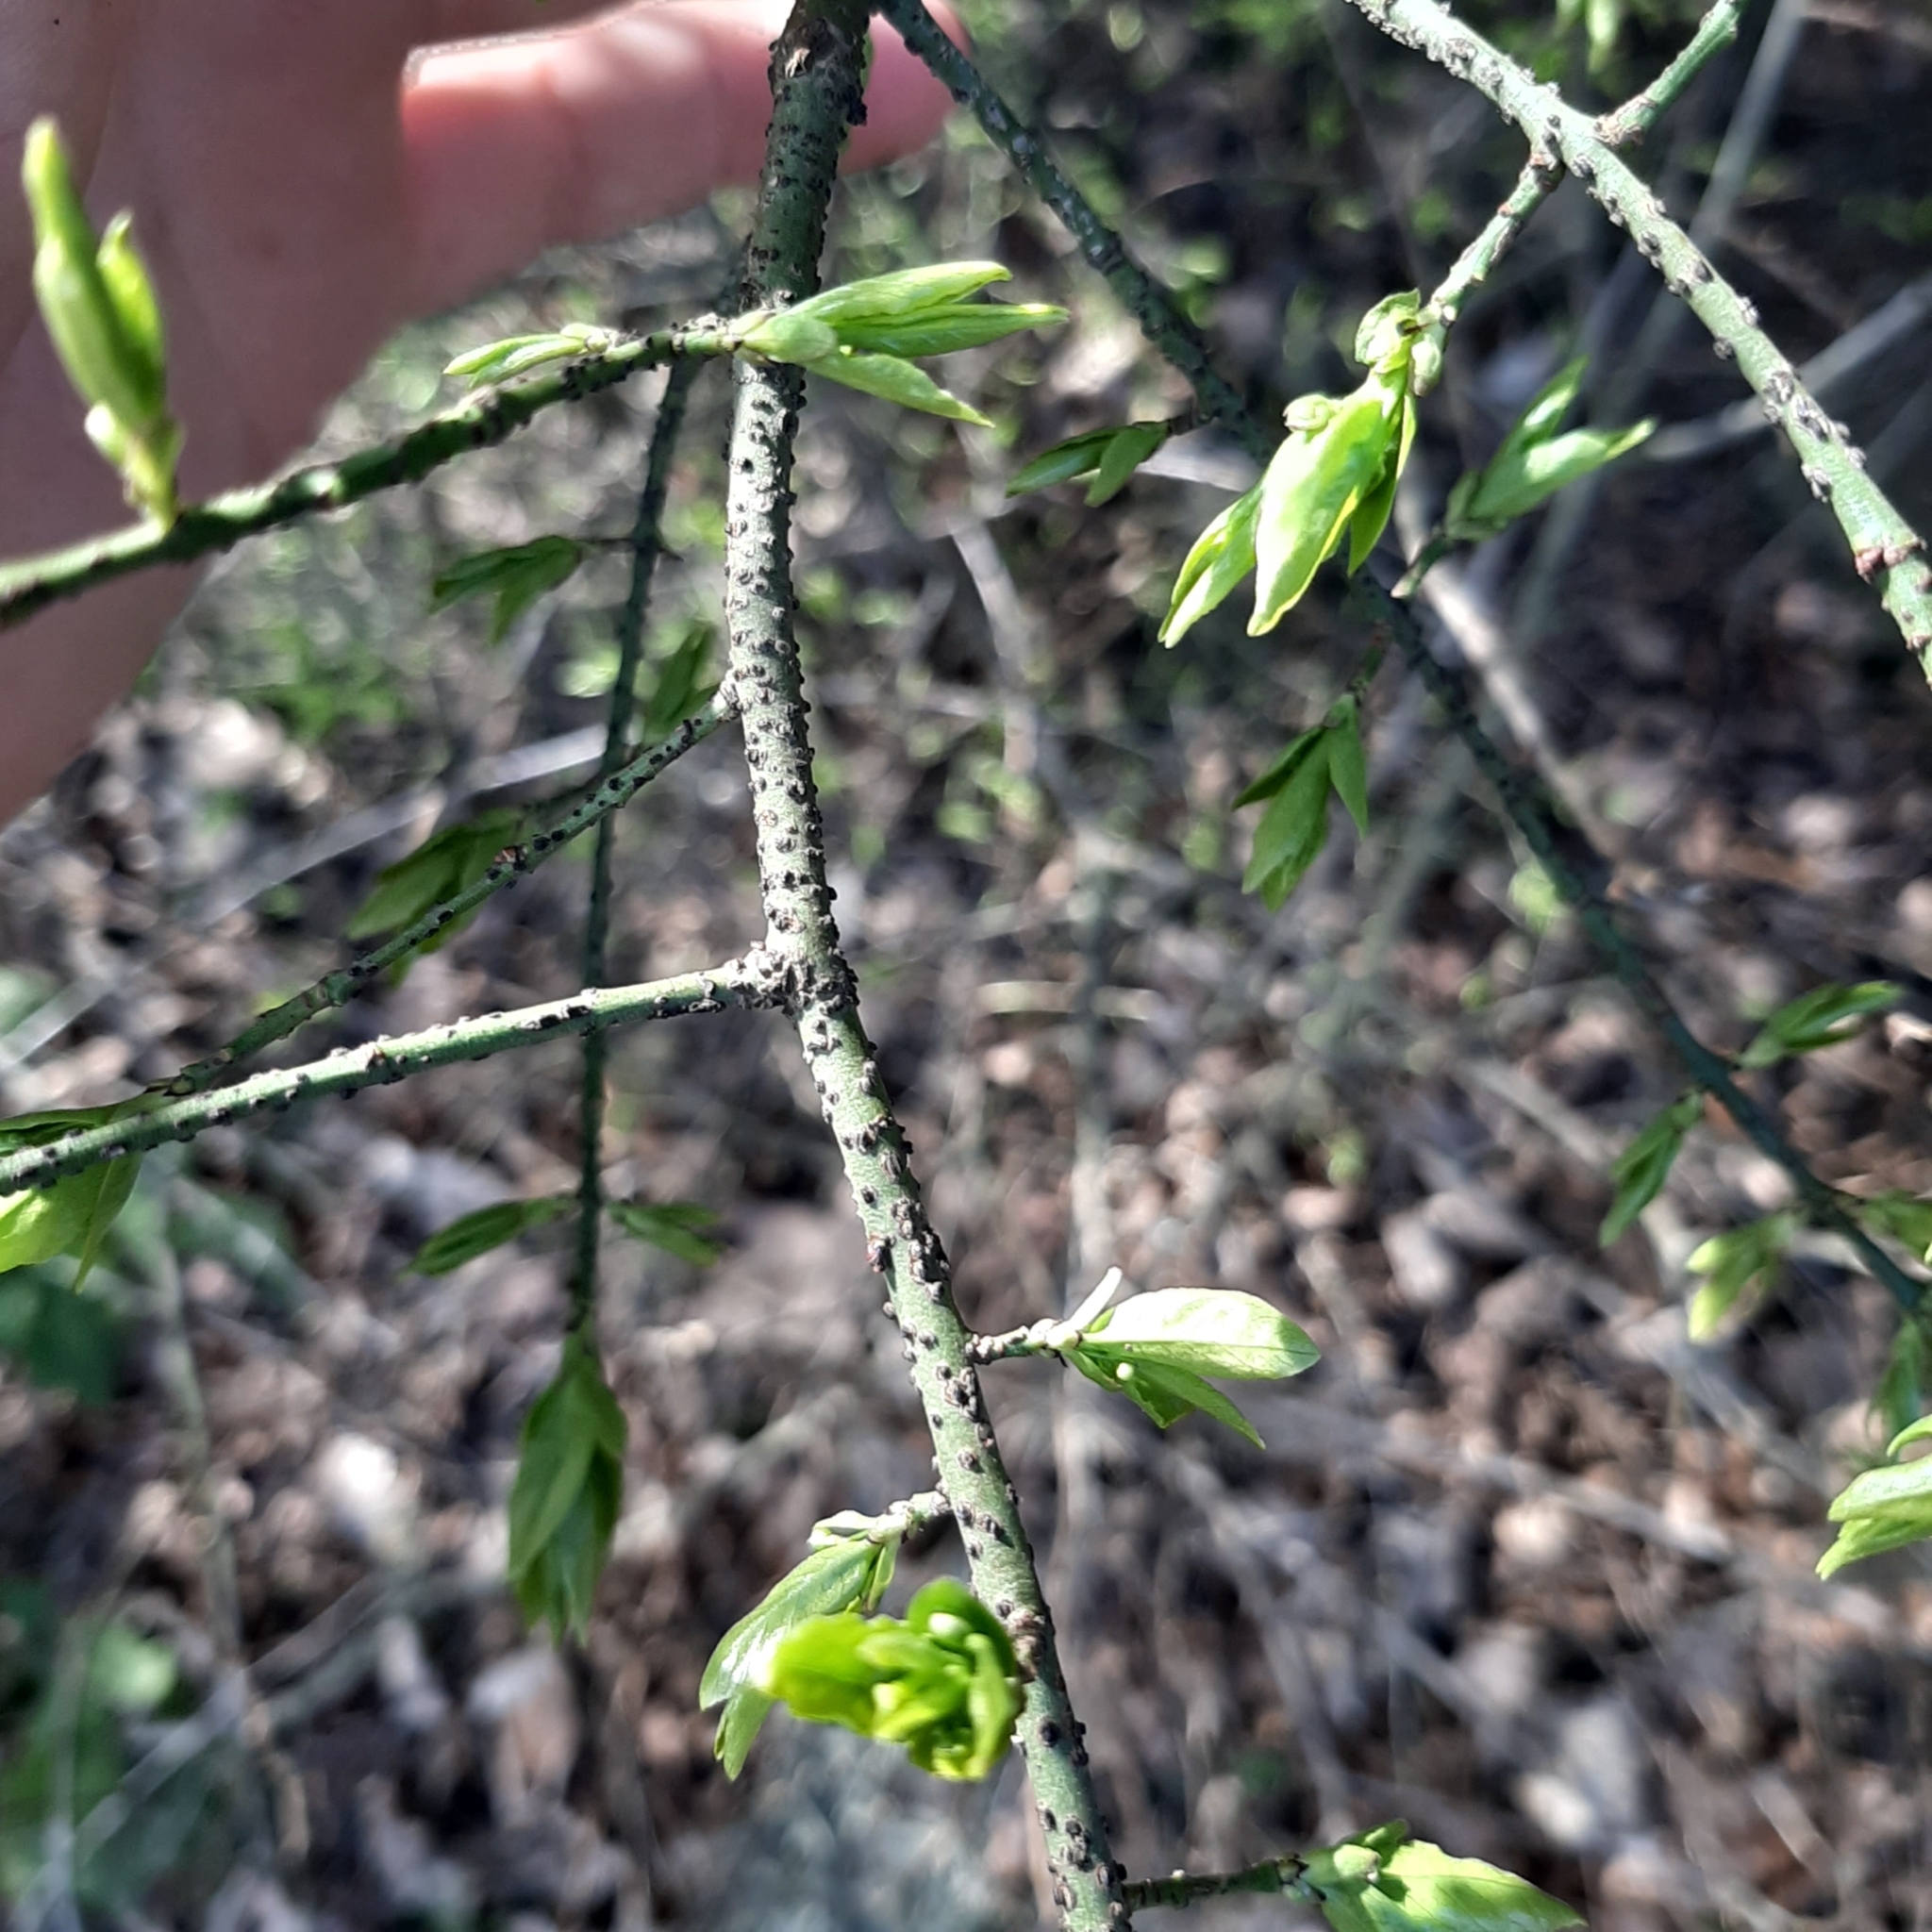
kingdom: Plantae
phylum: Tracheophyta
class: Magnoliopsida
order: Celastrales
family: Celastraceae
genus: Euonymus
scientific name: Euonymus verrucosus
